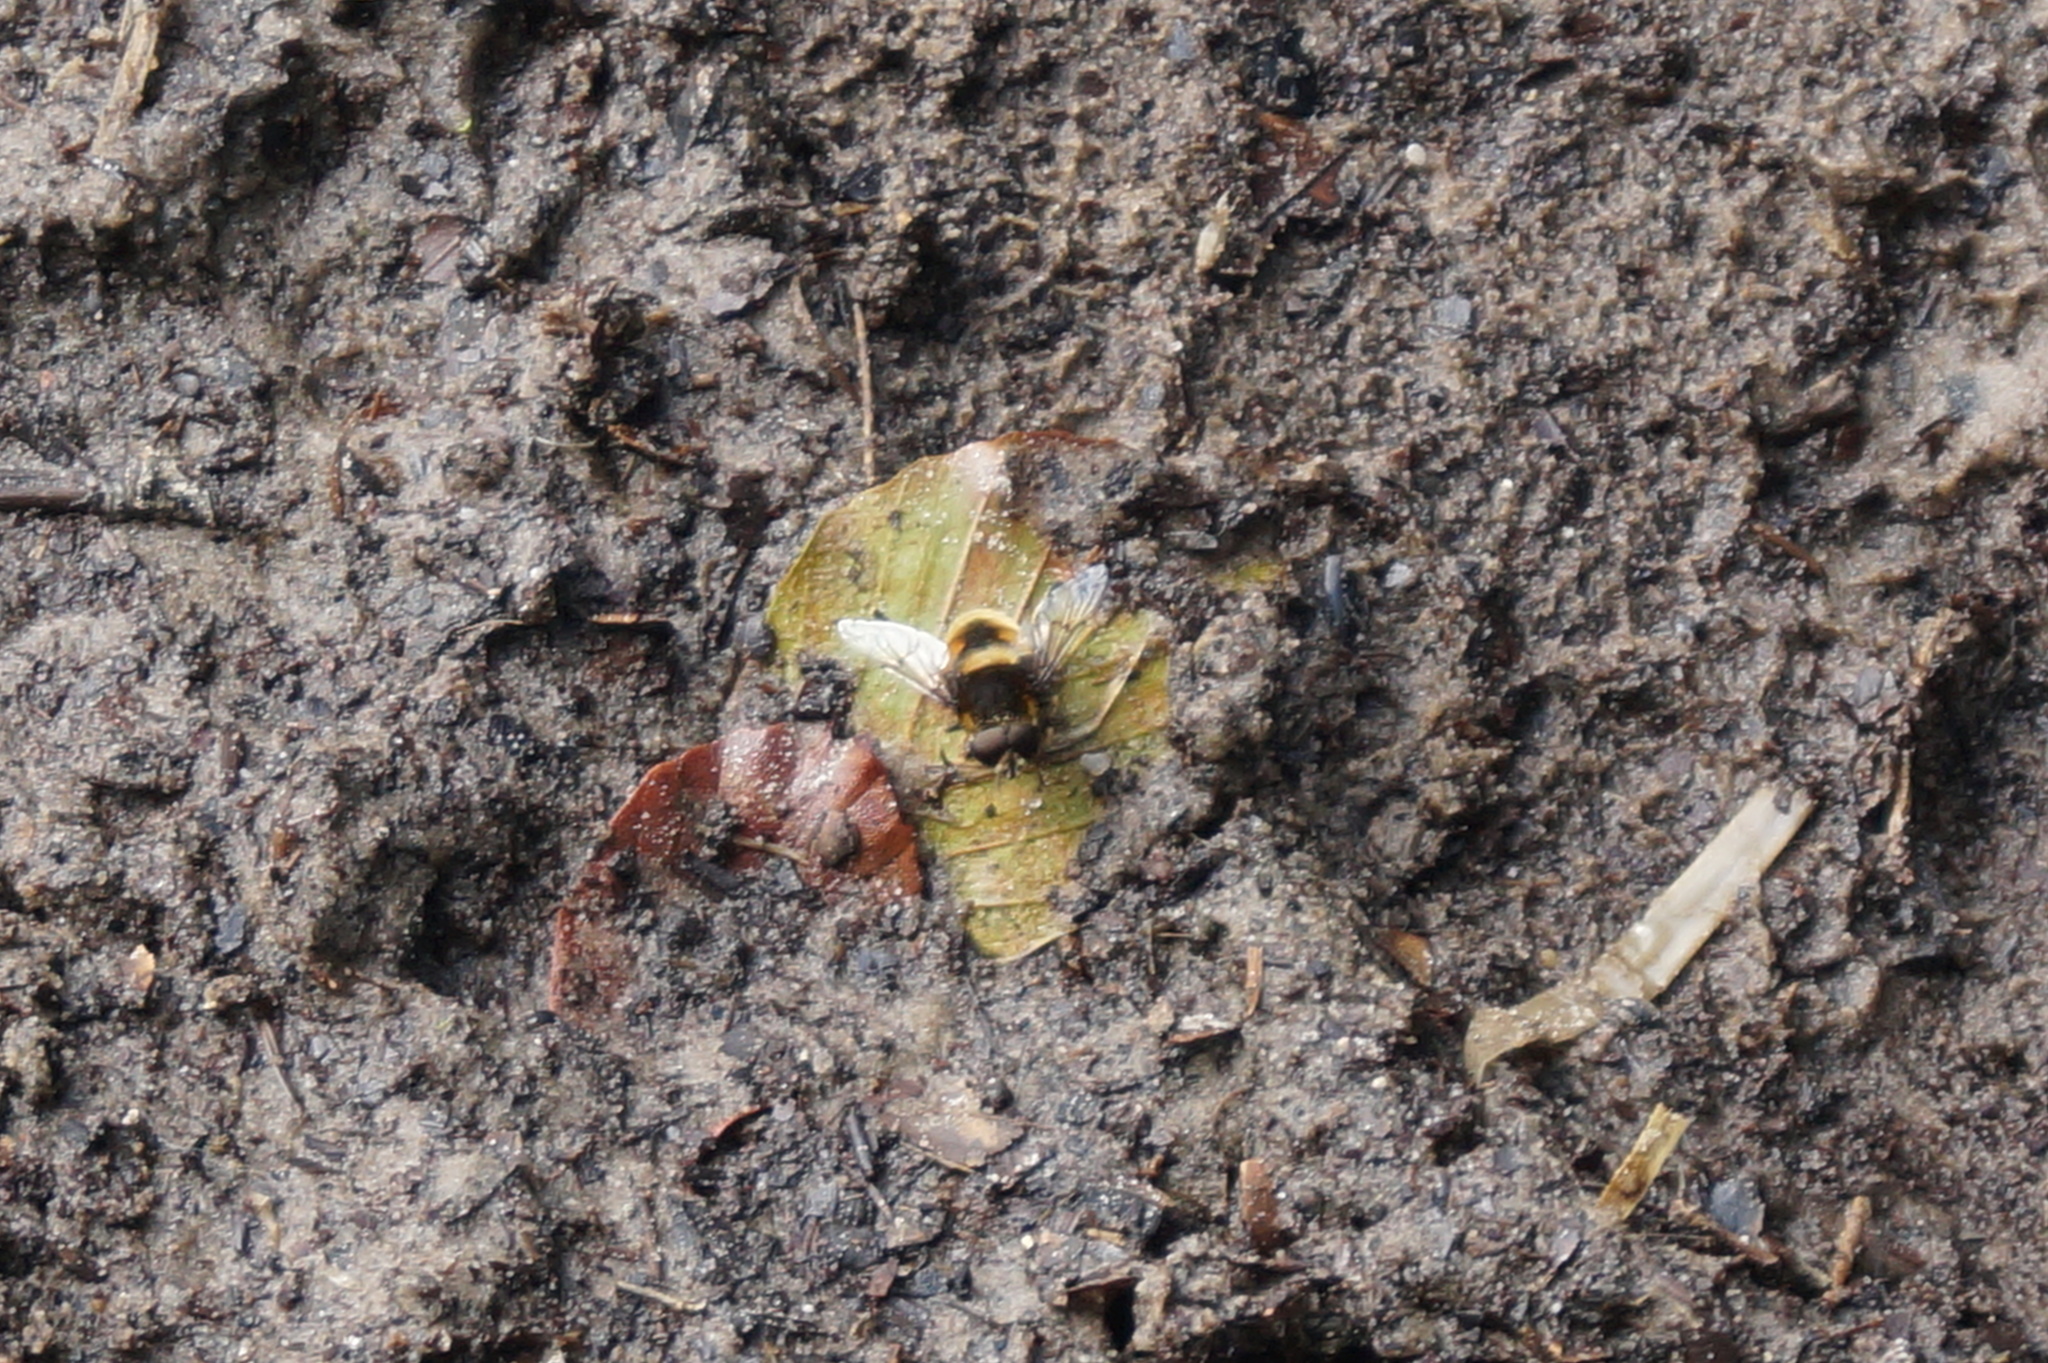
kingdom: Animalia
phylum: Arthropoda
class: Insecta
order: Diptera
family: Syrphidae
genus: Eristalis
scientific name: Eristalis intricaria
